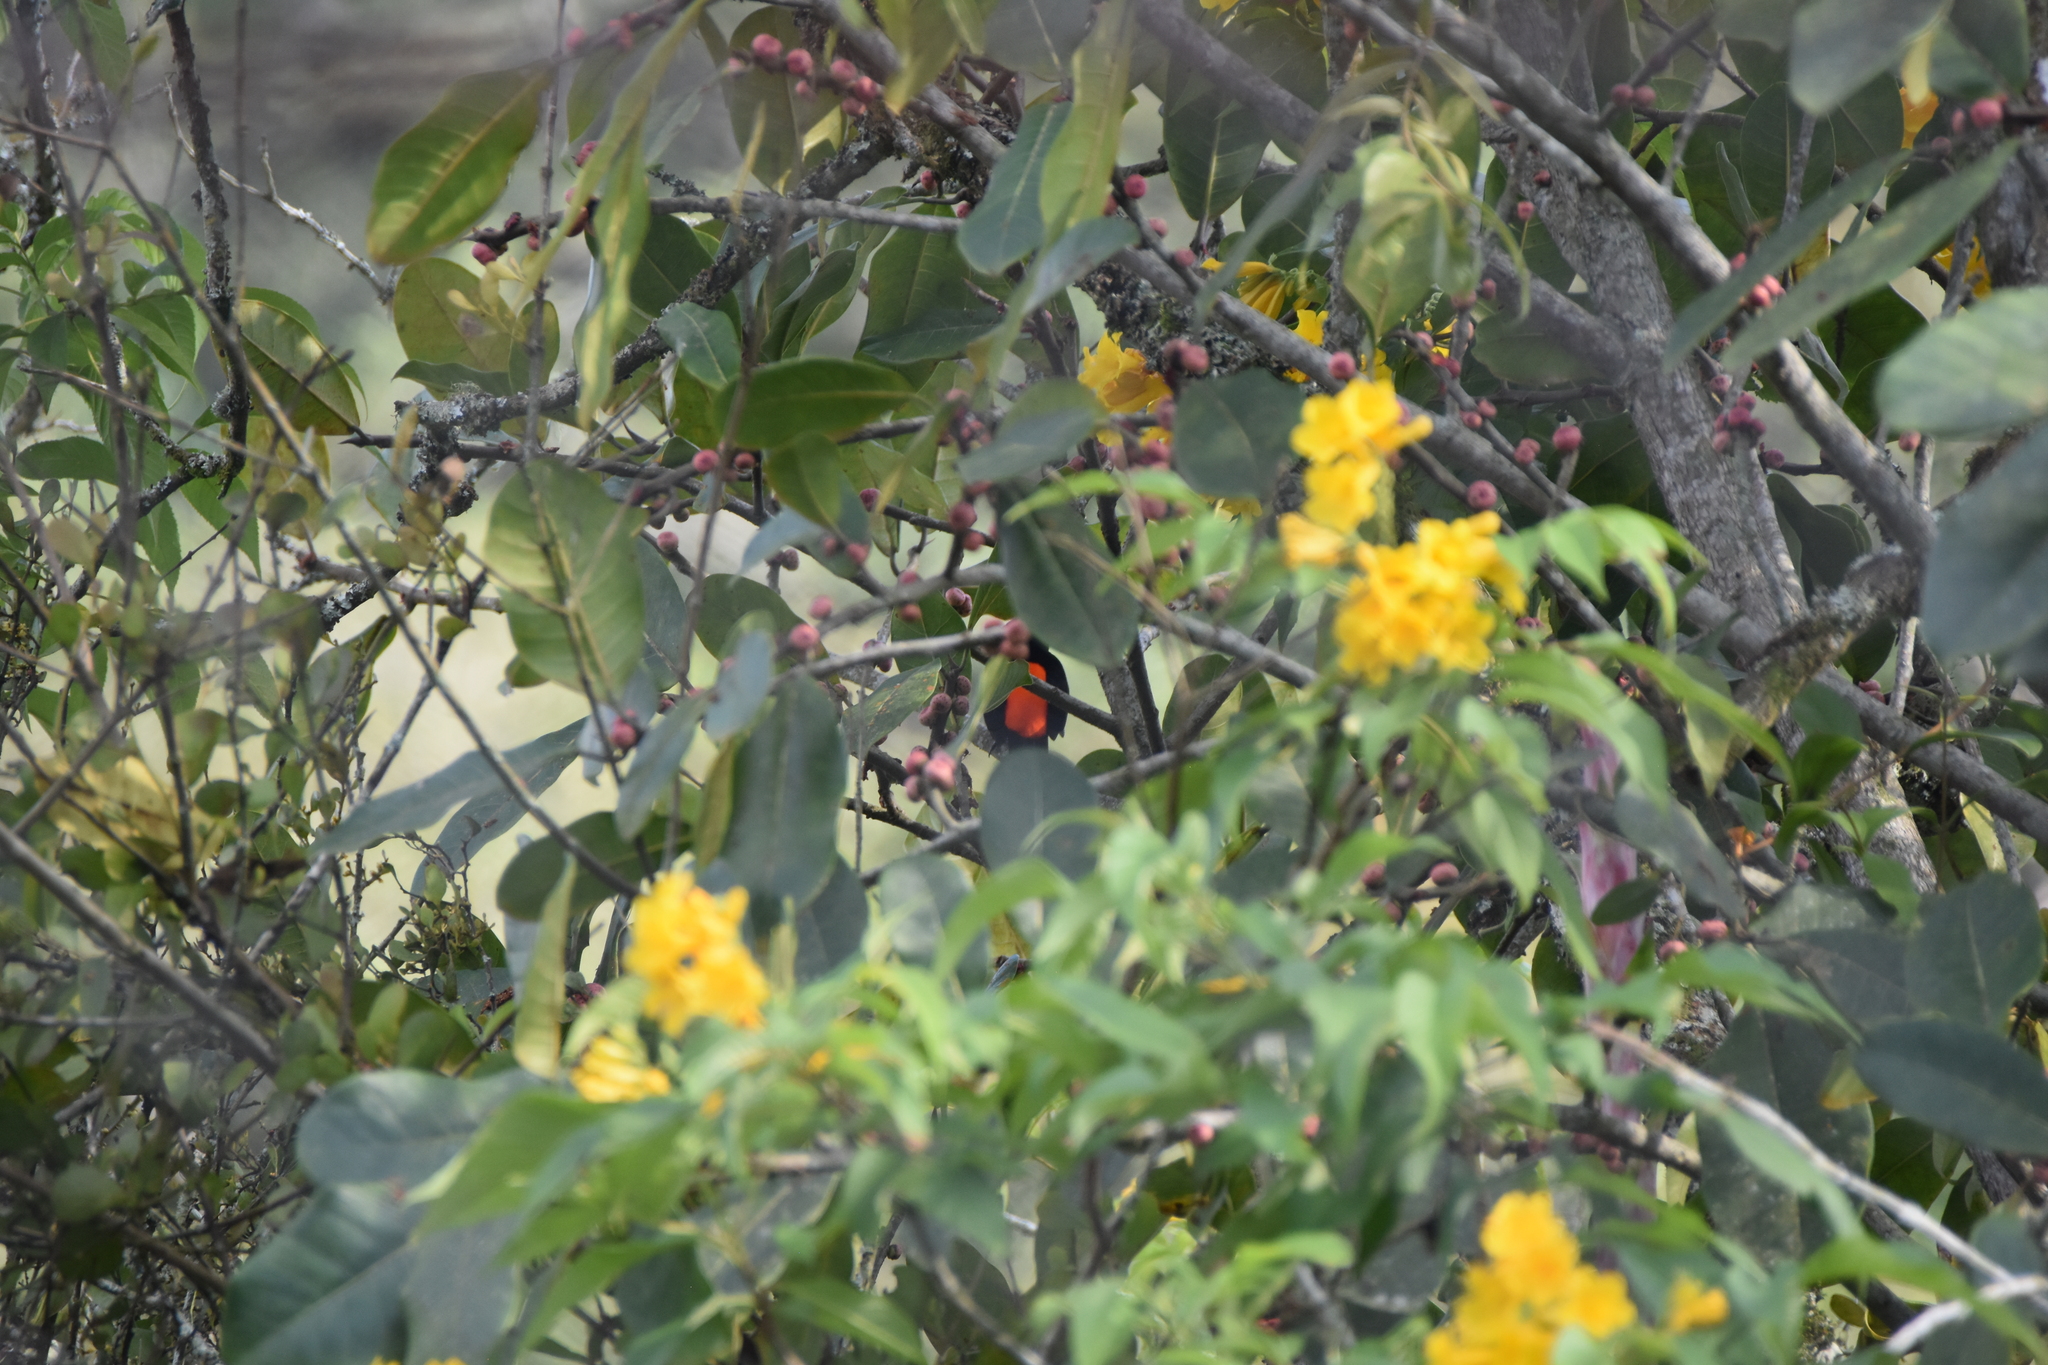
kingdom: Animalia
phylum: Chordata
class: Aves
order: Passeriformes
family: Thraupidae
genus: Ramphocelus
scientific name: Ramphocelus flammigerus
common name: Flame-rumped tanager
